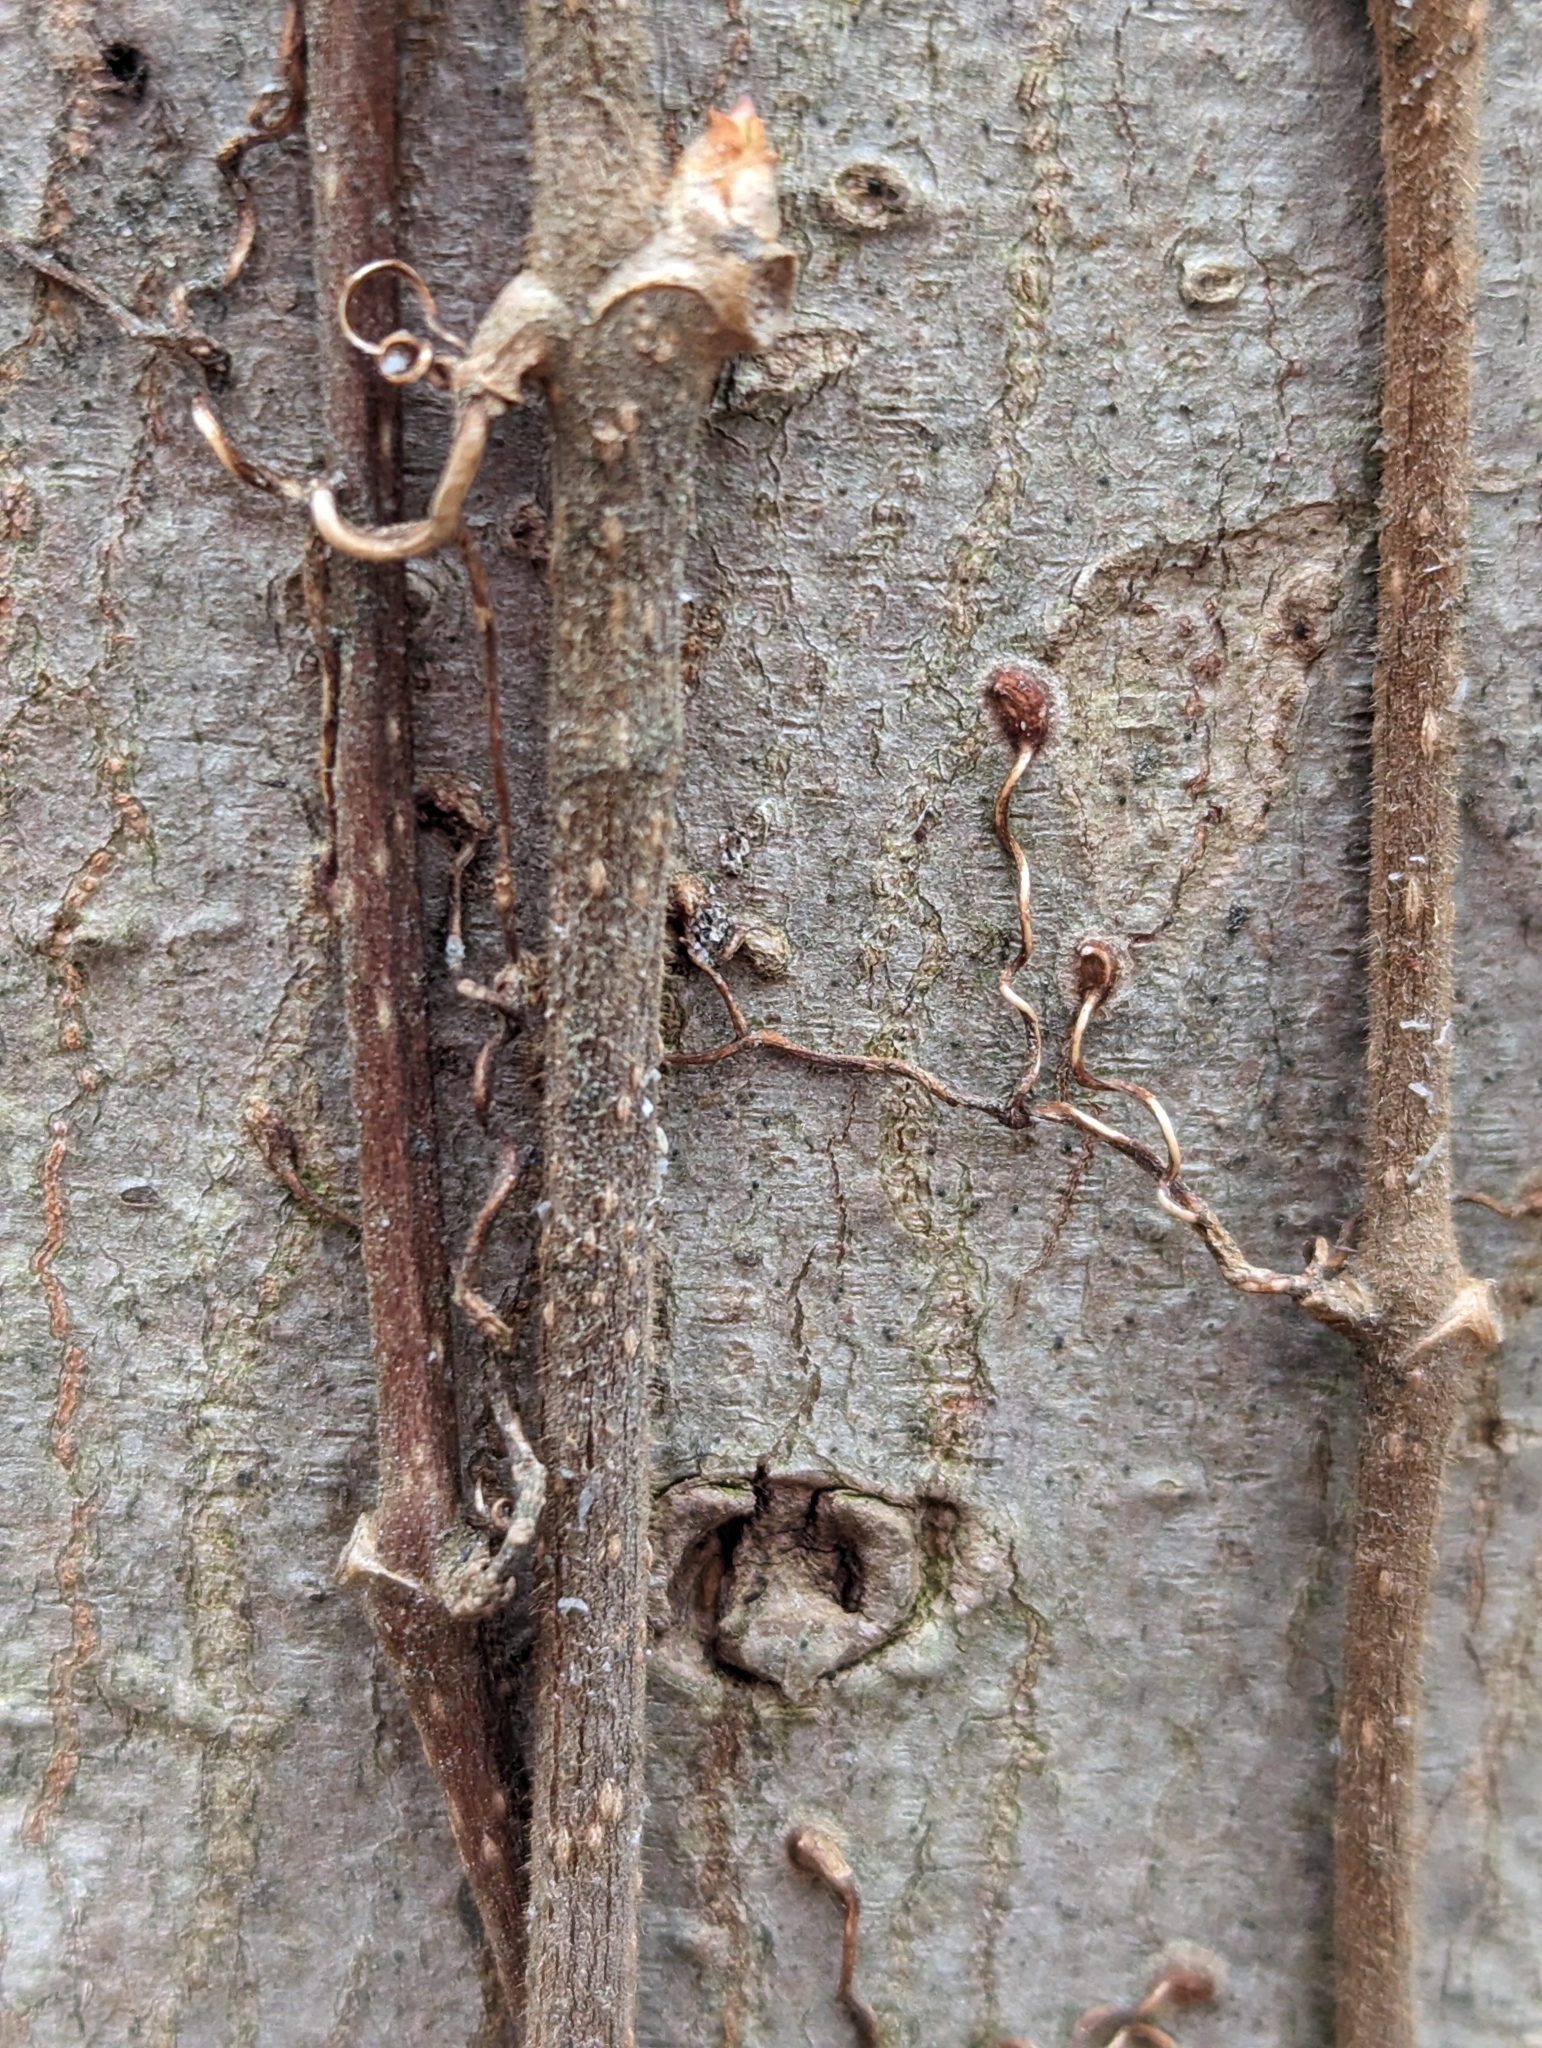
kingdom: Plantae
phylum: Tracheophyta
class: Magnoliopsida
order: Vitales
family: Vitaceae
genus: Parthenocissus
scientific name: Parthenocissus quinquefolia
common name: Virginia-creeper
